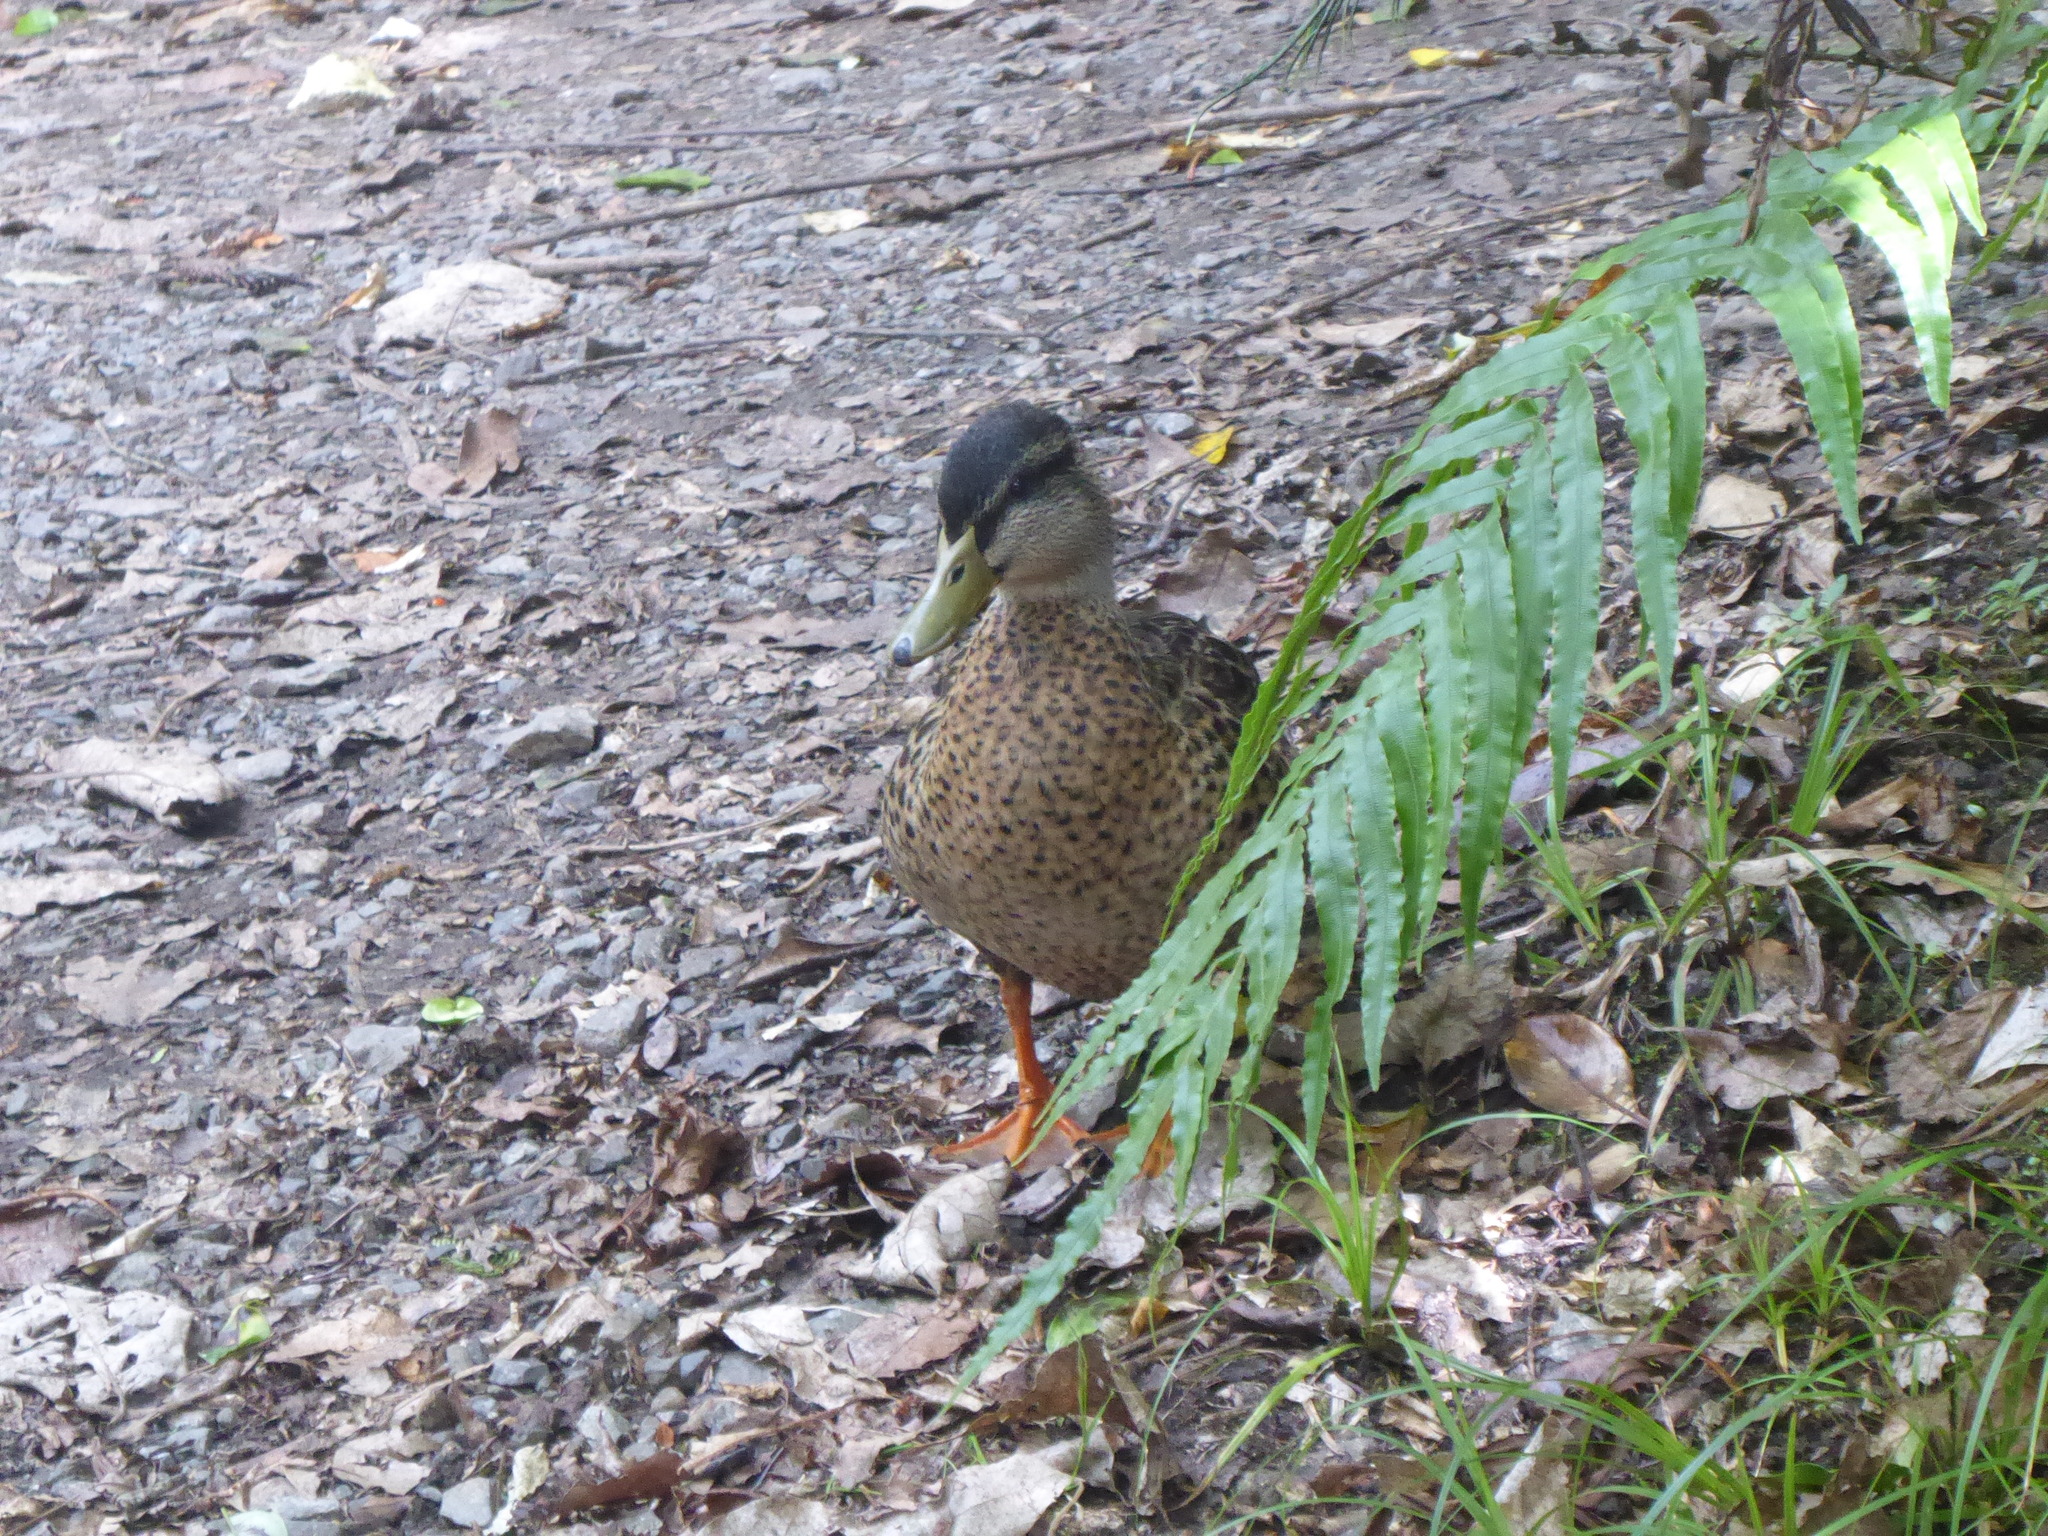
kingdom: Animalia
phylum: Chordata
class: Aves
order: Anseriformes
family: Anatidae
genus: Anas
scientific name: Anas platyrhynchos
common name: Mallard
